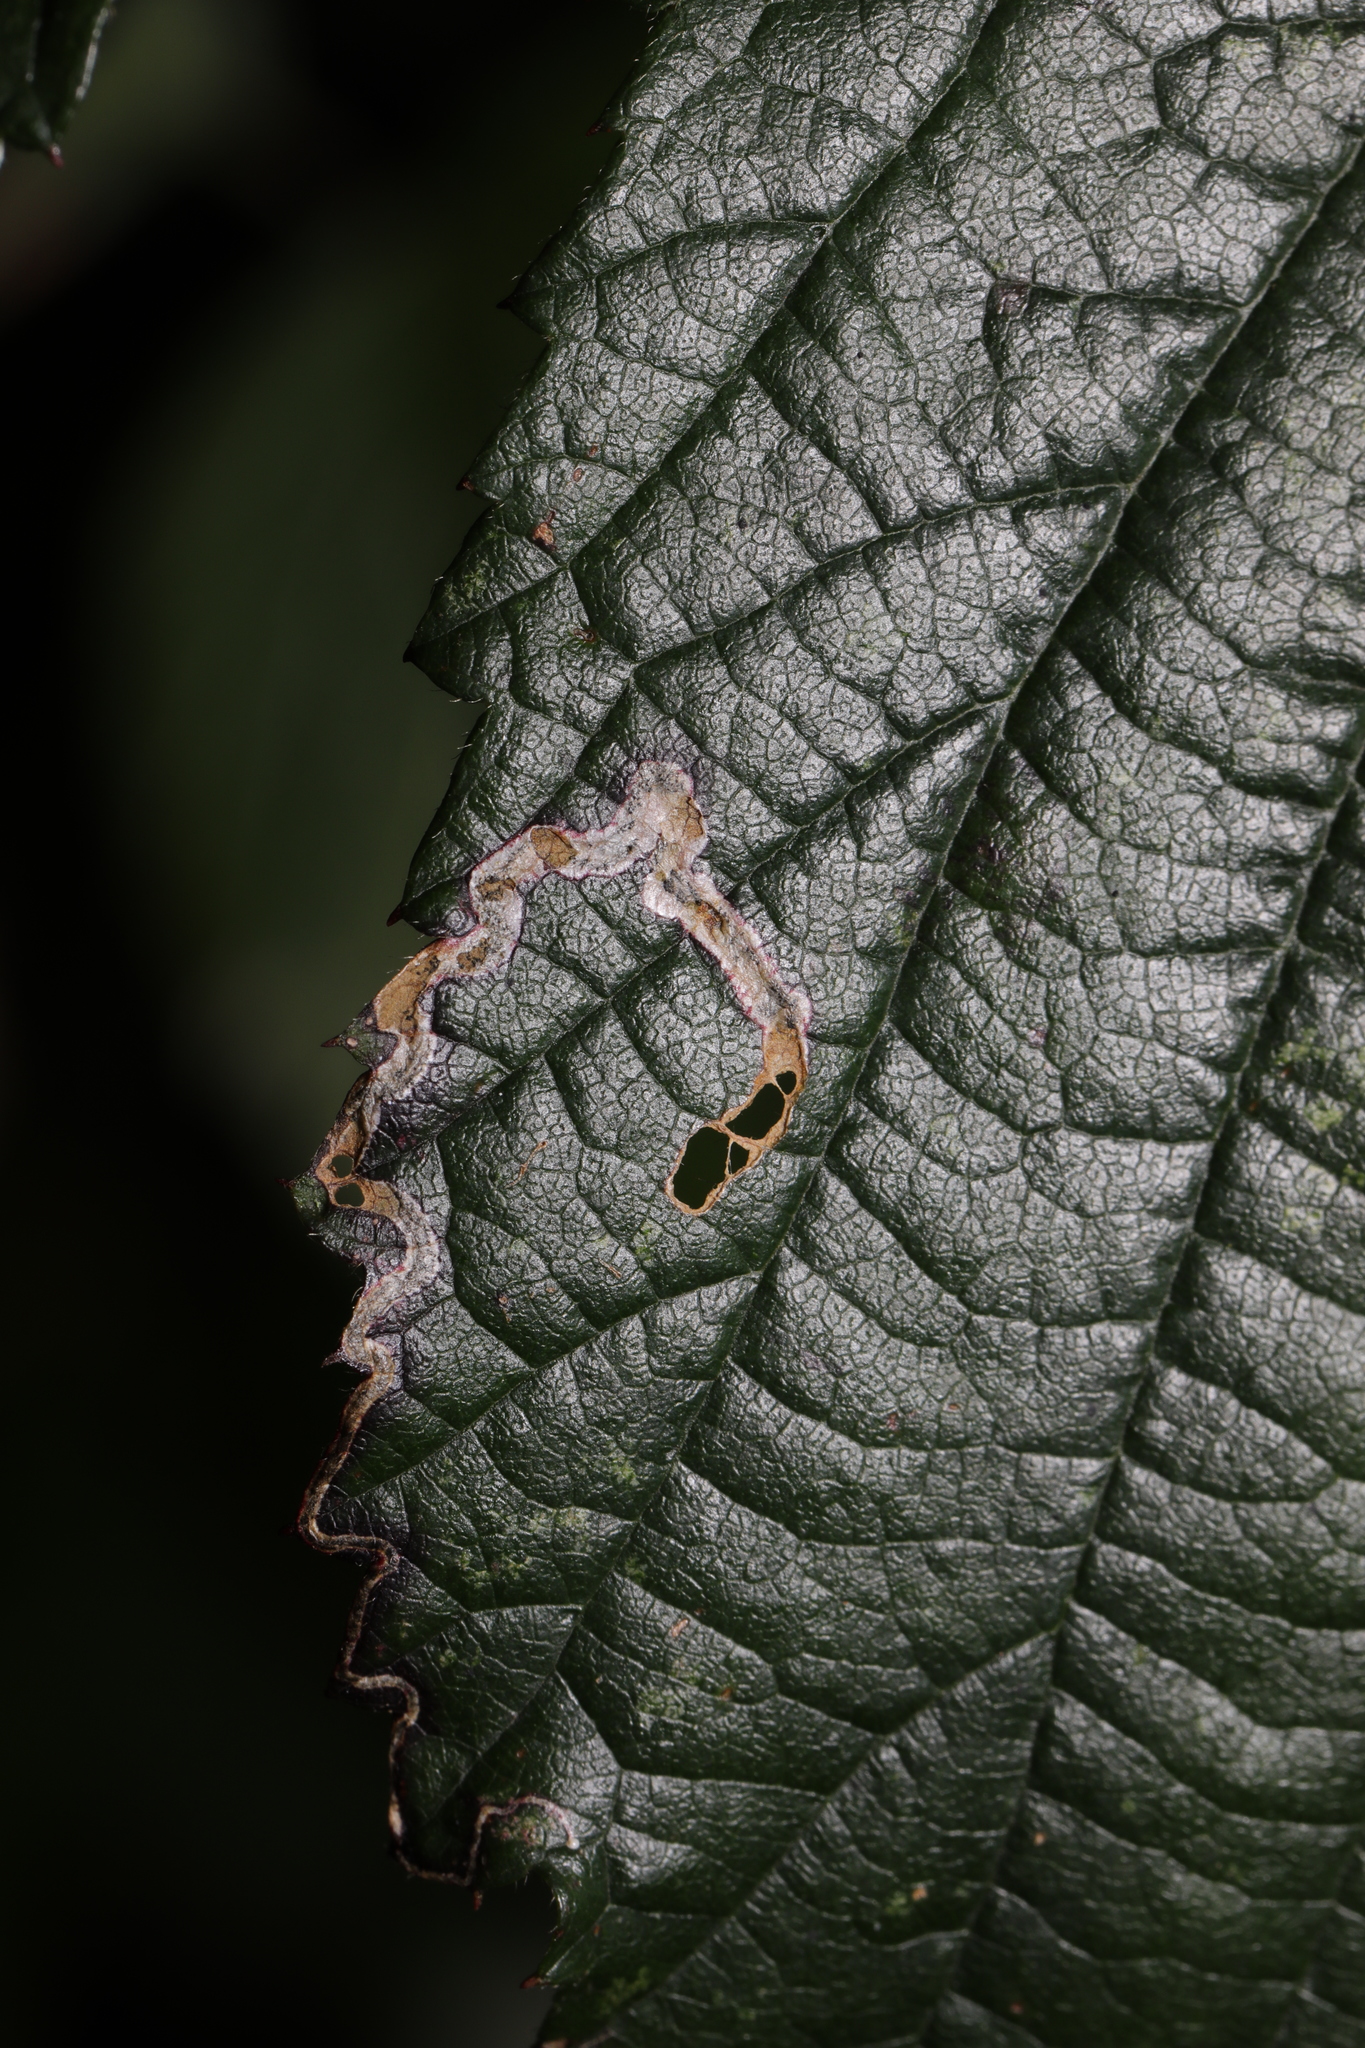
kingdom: Animalia
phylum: Arthropoda
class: Insecta
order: Lepidoptera
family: Nepticulidae
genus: Stigmella
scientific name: Stigmella aurella
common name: Golden pigmy
